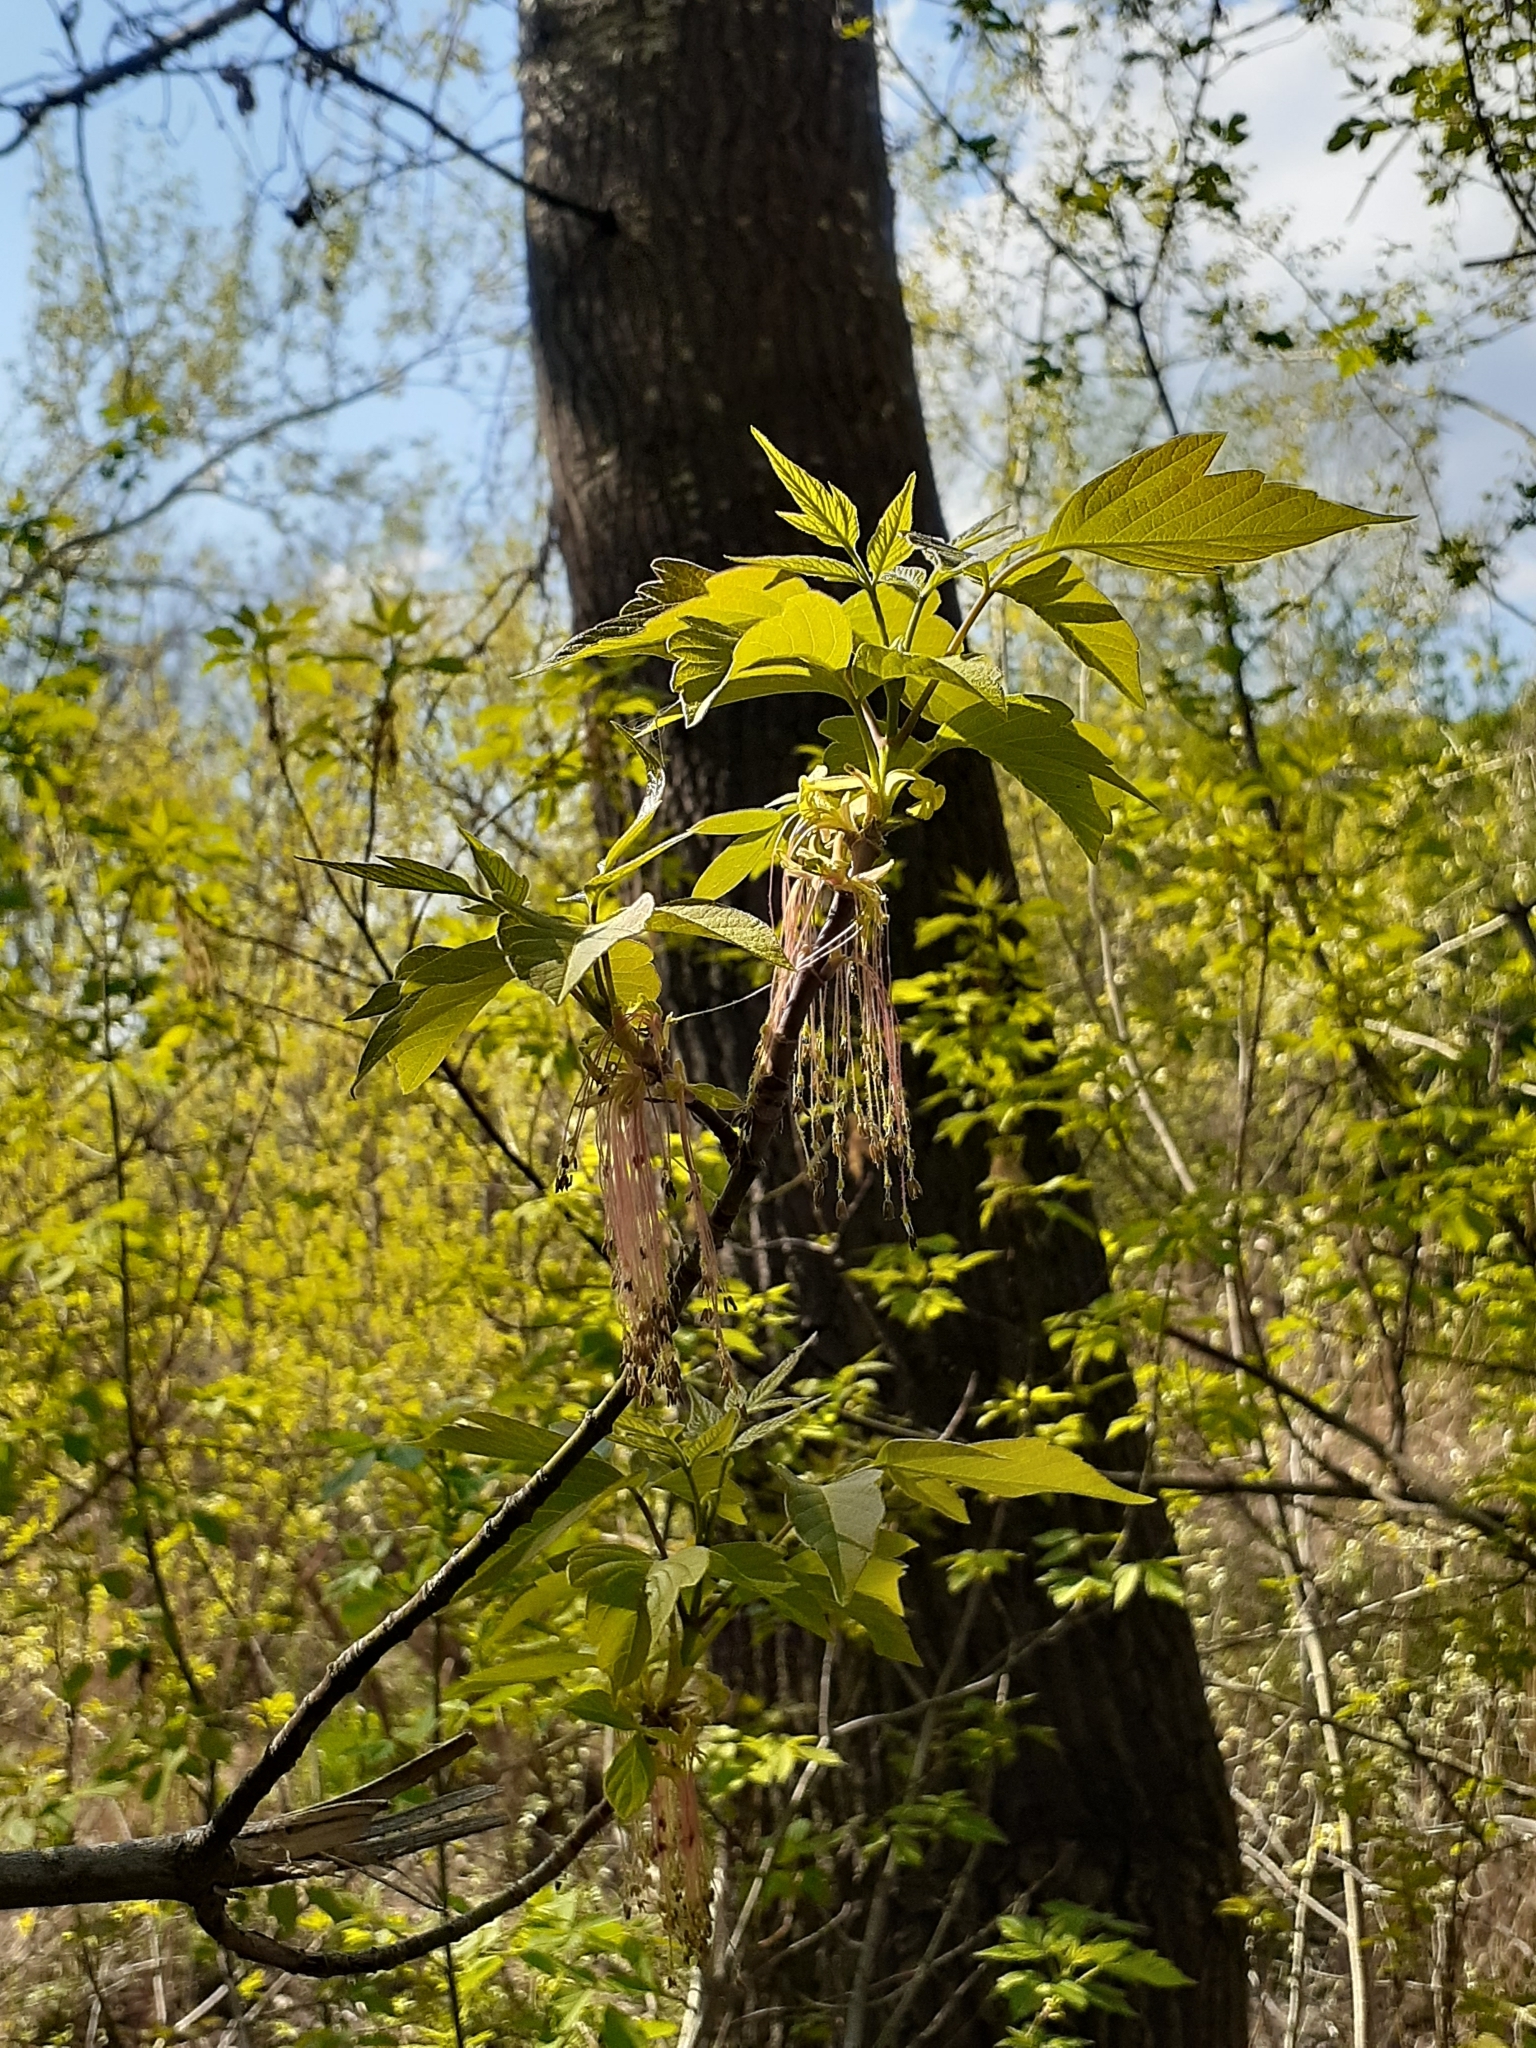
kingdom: Plantae
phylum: Tracheophyta
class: Magnoliopsida
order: Sapindales
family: Sapindaceae
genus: Acer
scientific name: Acer negundo
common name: Ashleaf maple
